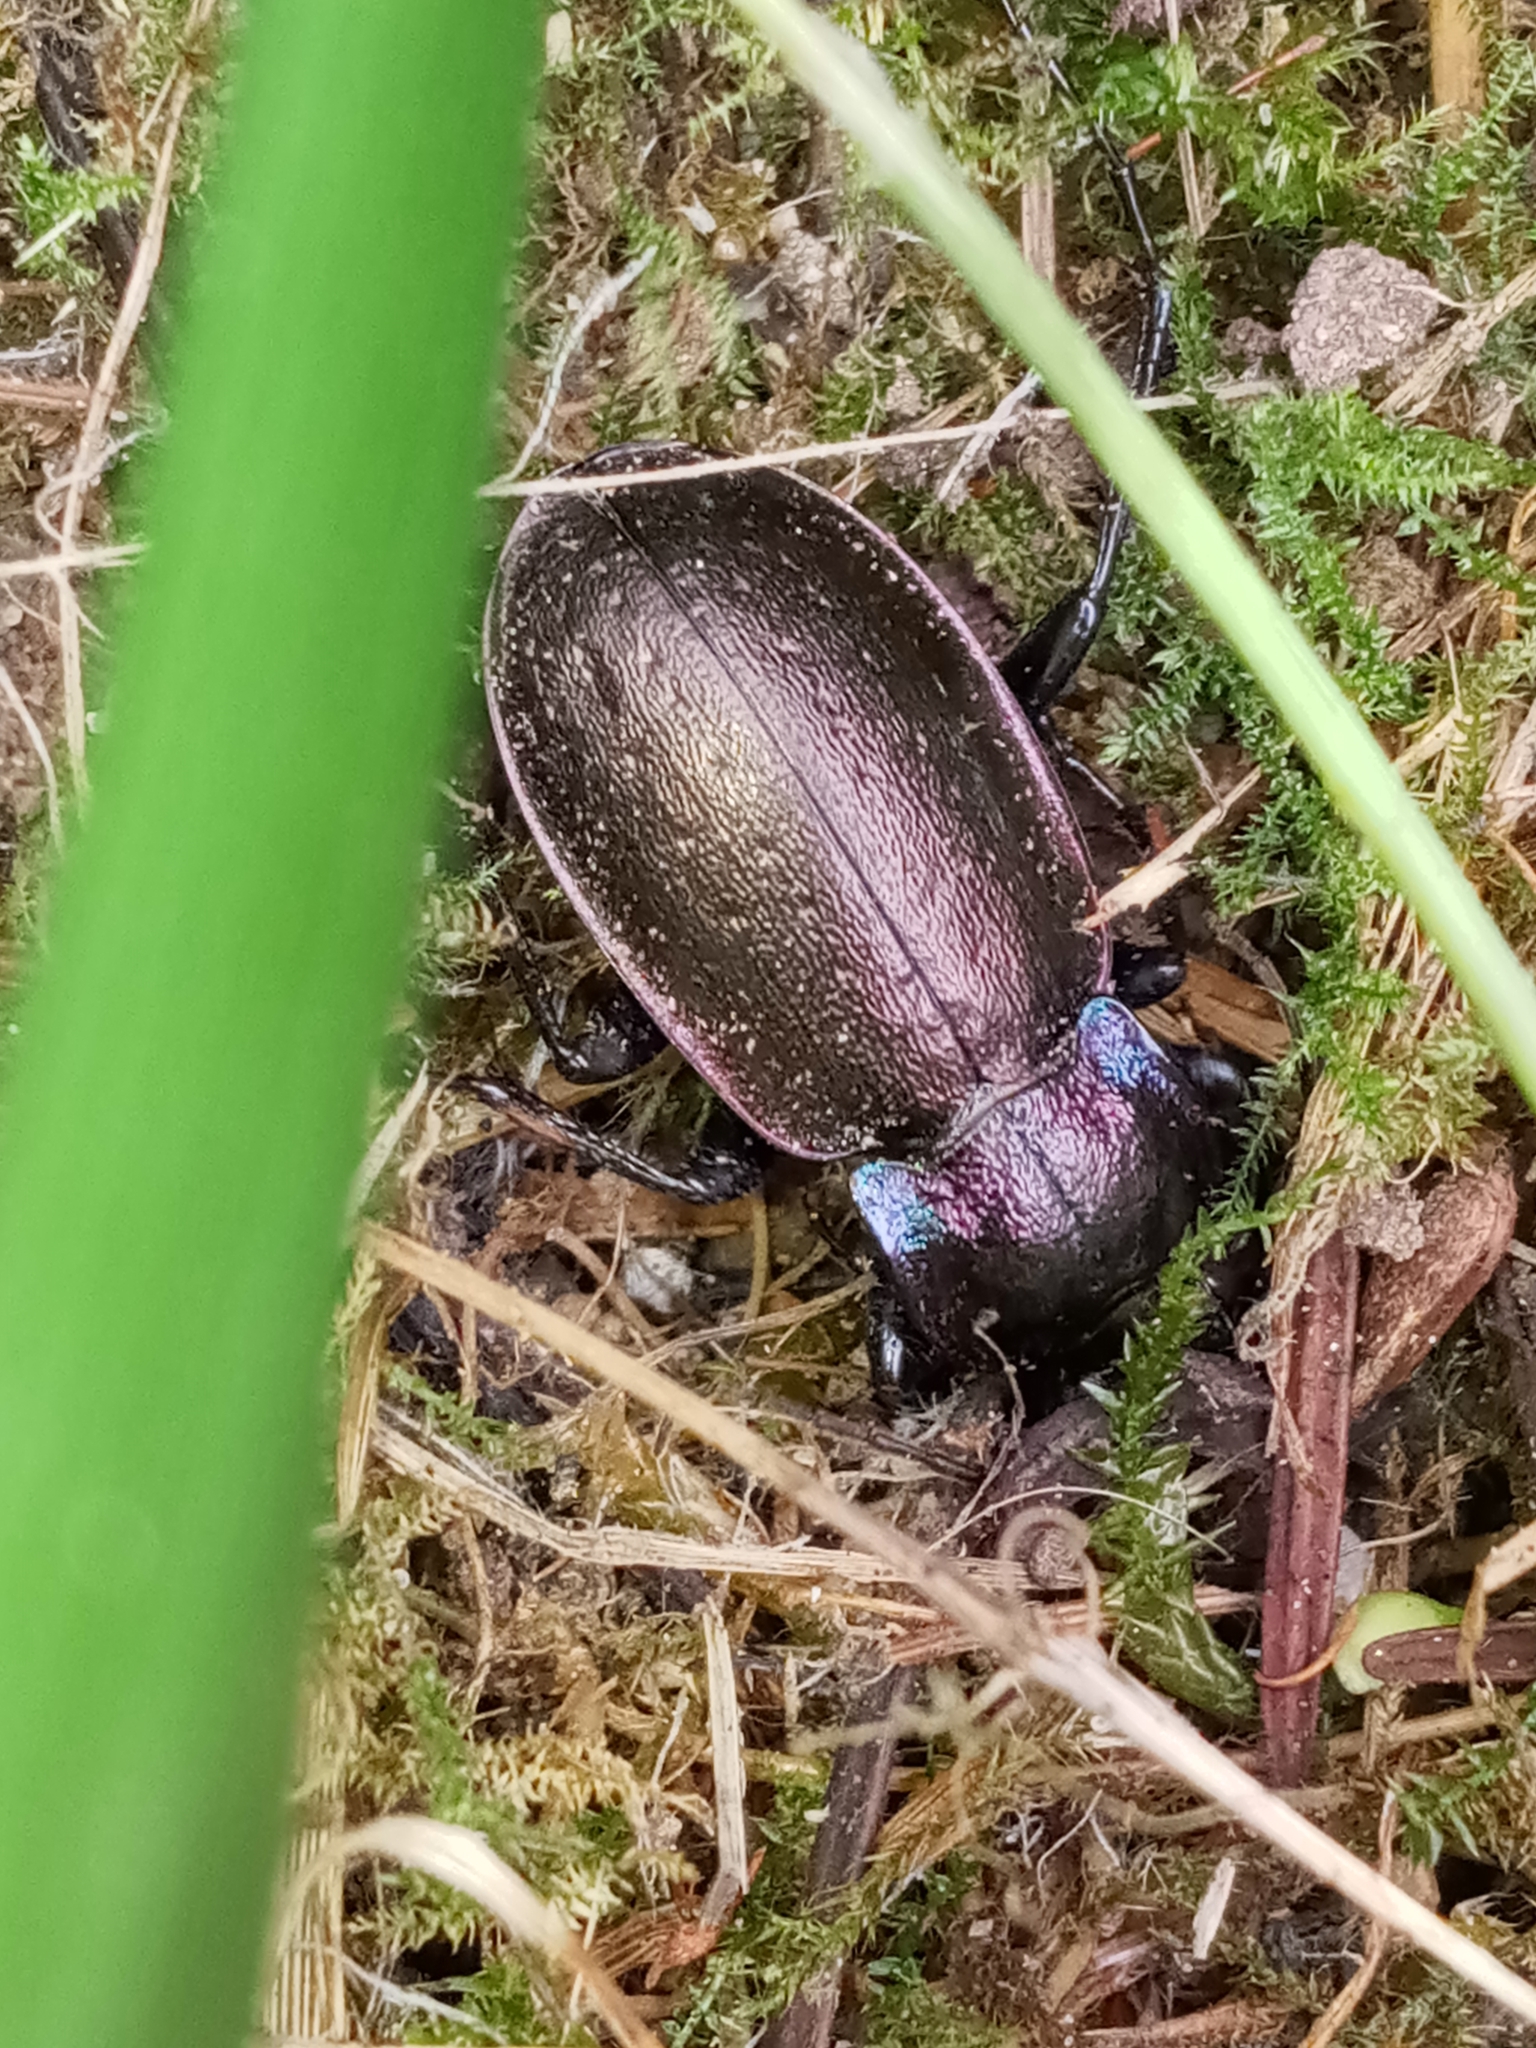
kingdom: Animalia
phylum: Arthropoda
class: Insecta
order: Coleoptera
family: Carabidae
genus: Carabus
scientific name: Carabus nemoralis
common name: European ground beetle
